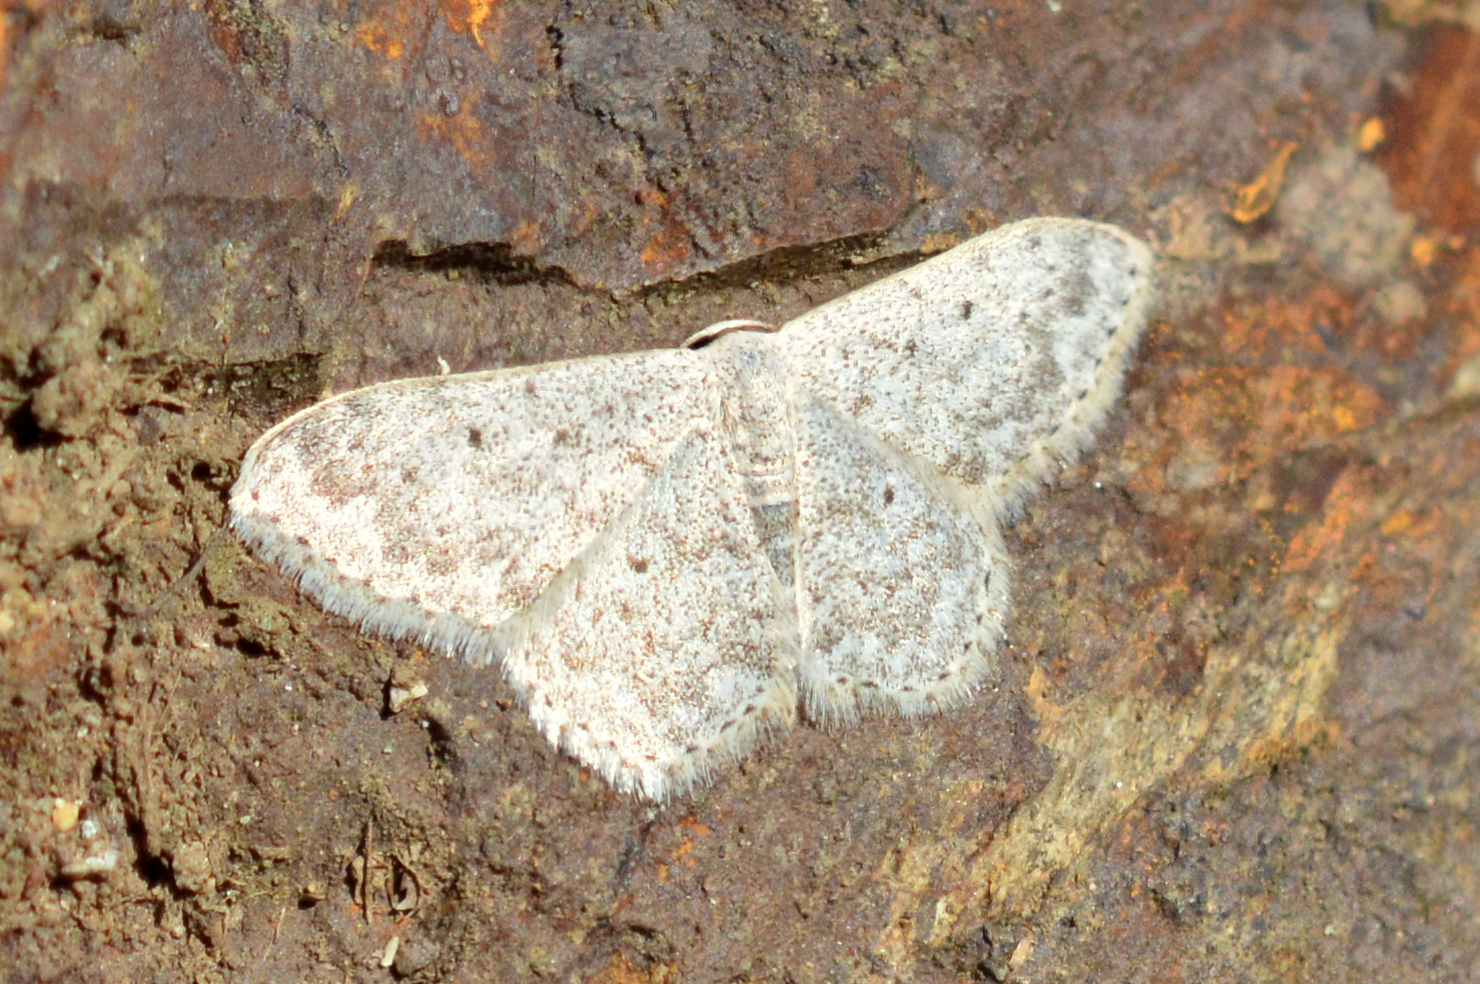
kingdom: Animalia
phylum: Arthropoda
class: Insecta
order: Lepidoptera
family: Geometridae
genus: Scopula
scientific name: Scopula marginepunctata
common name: Mullein wave
